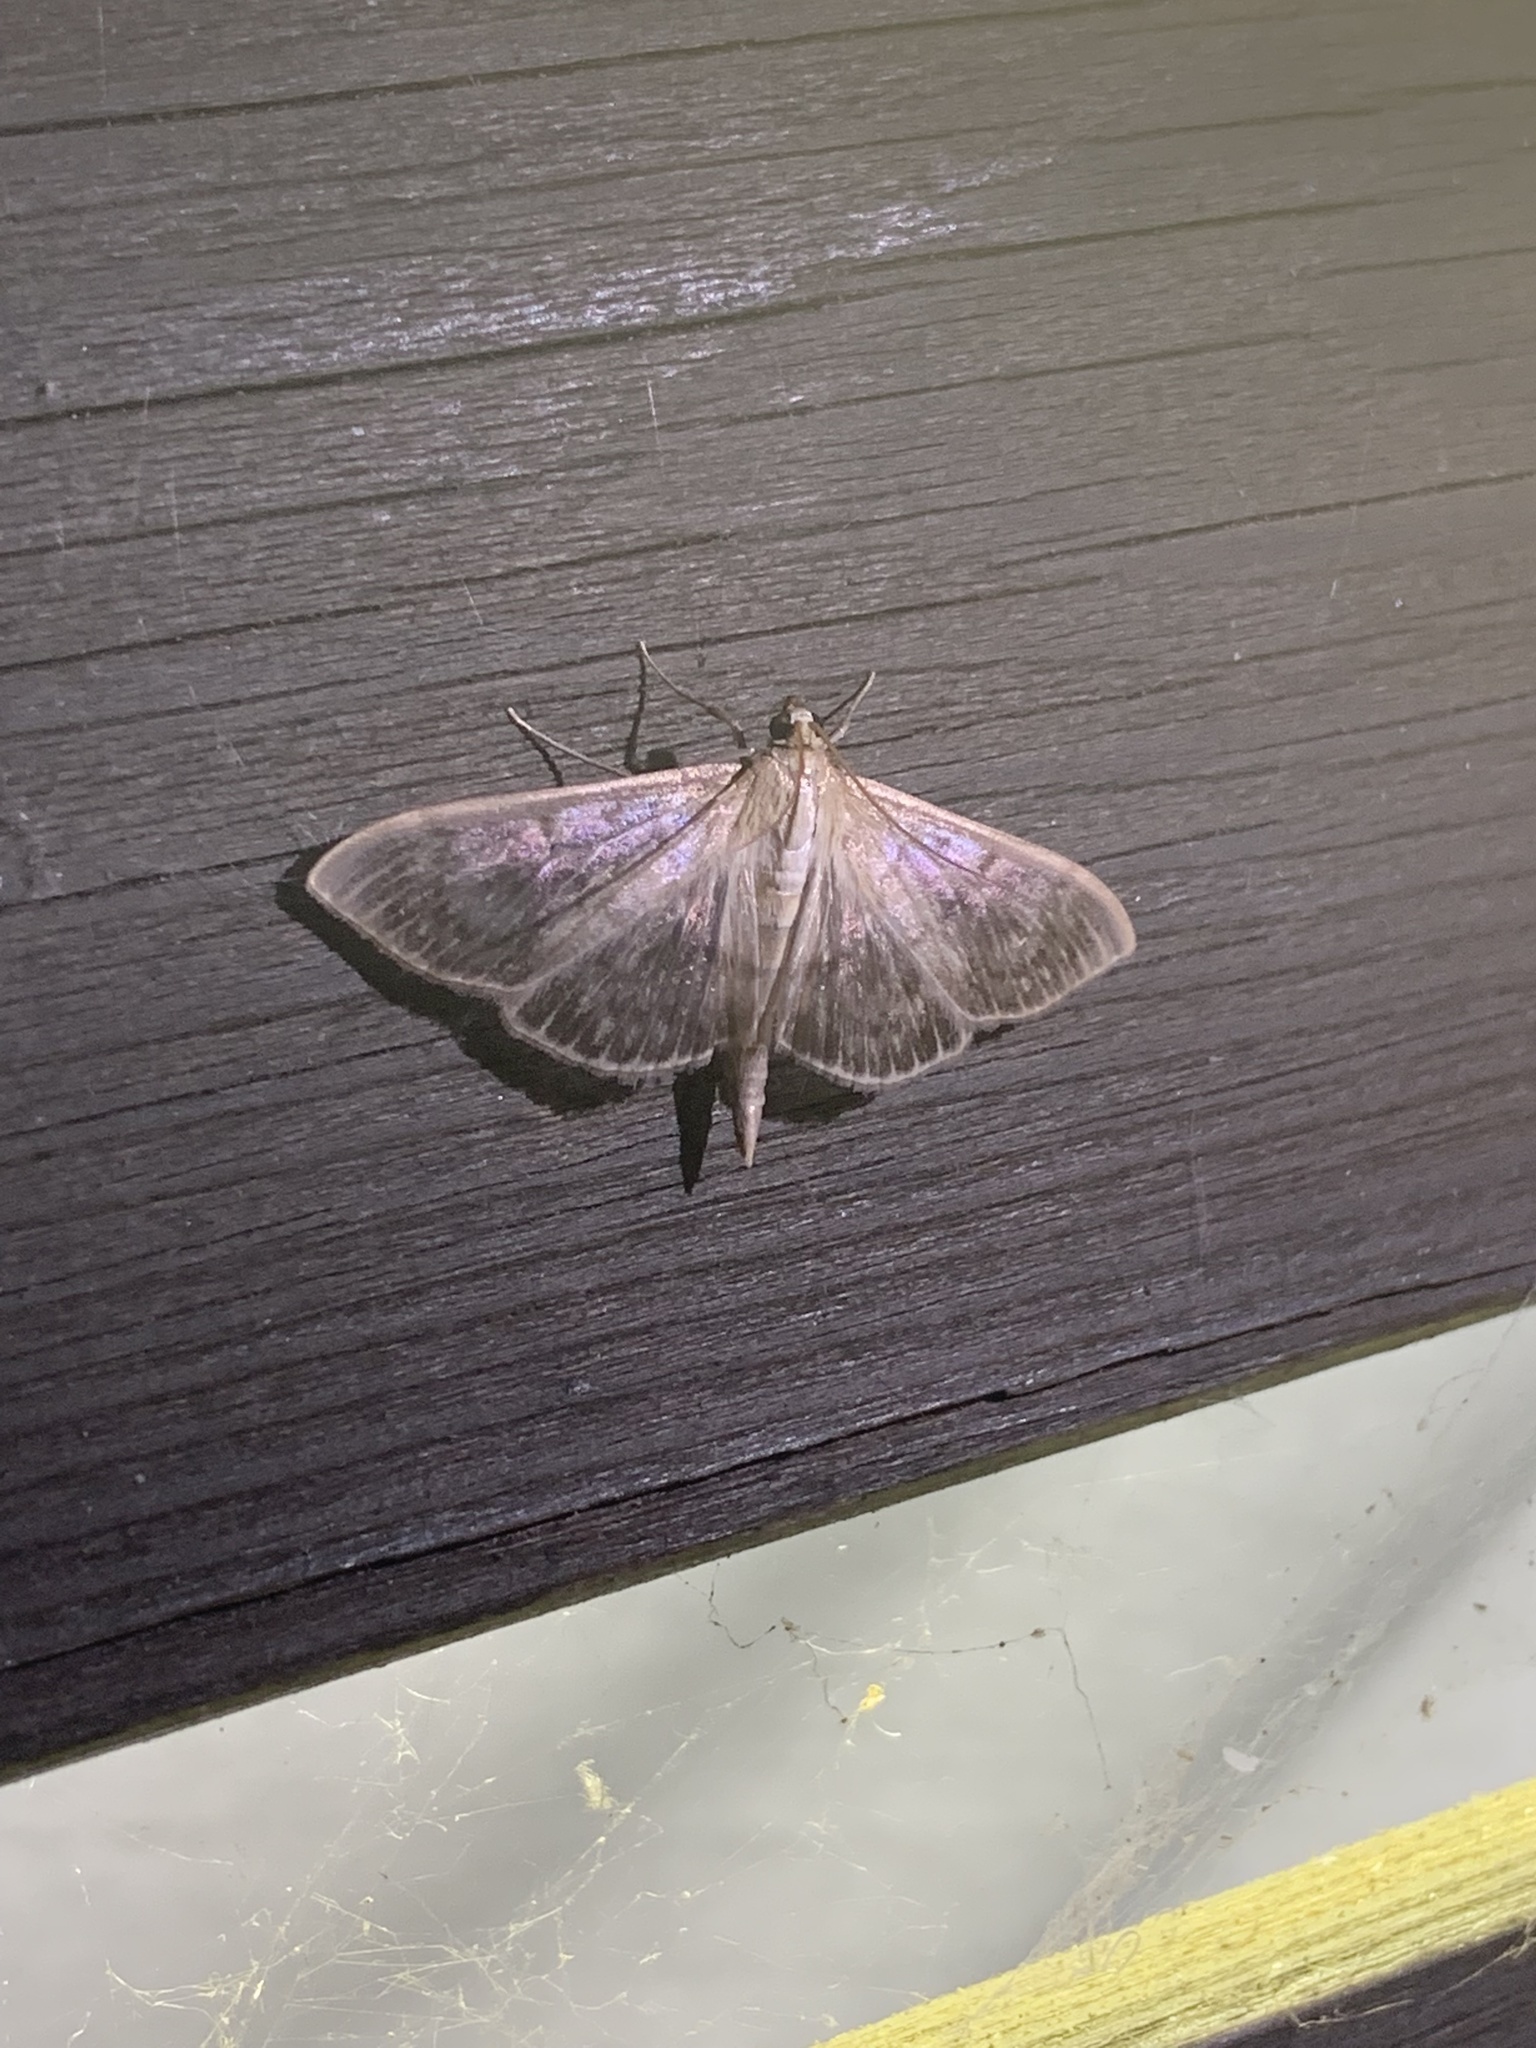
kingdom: Animalia
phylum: Arthropoda
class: Insecta
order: Lepidoptera
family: Crambidae
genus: Patania
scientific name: Patania ruralis
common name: Mother of pearl
